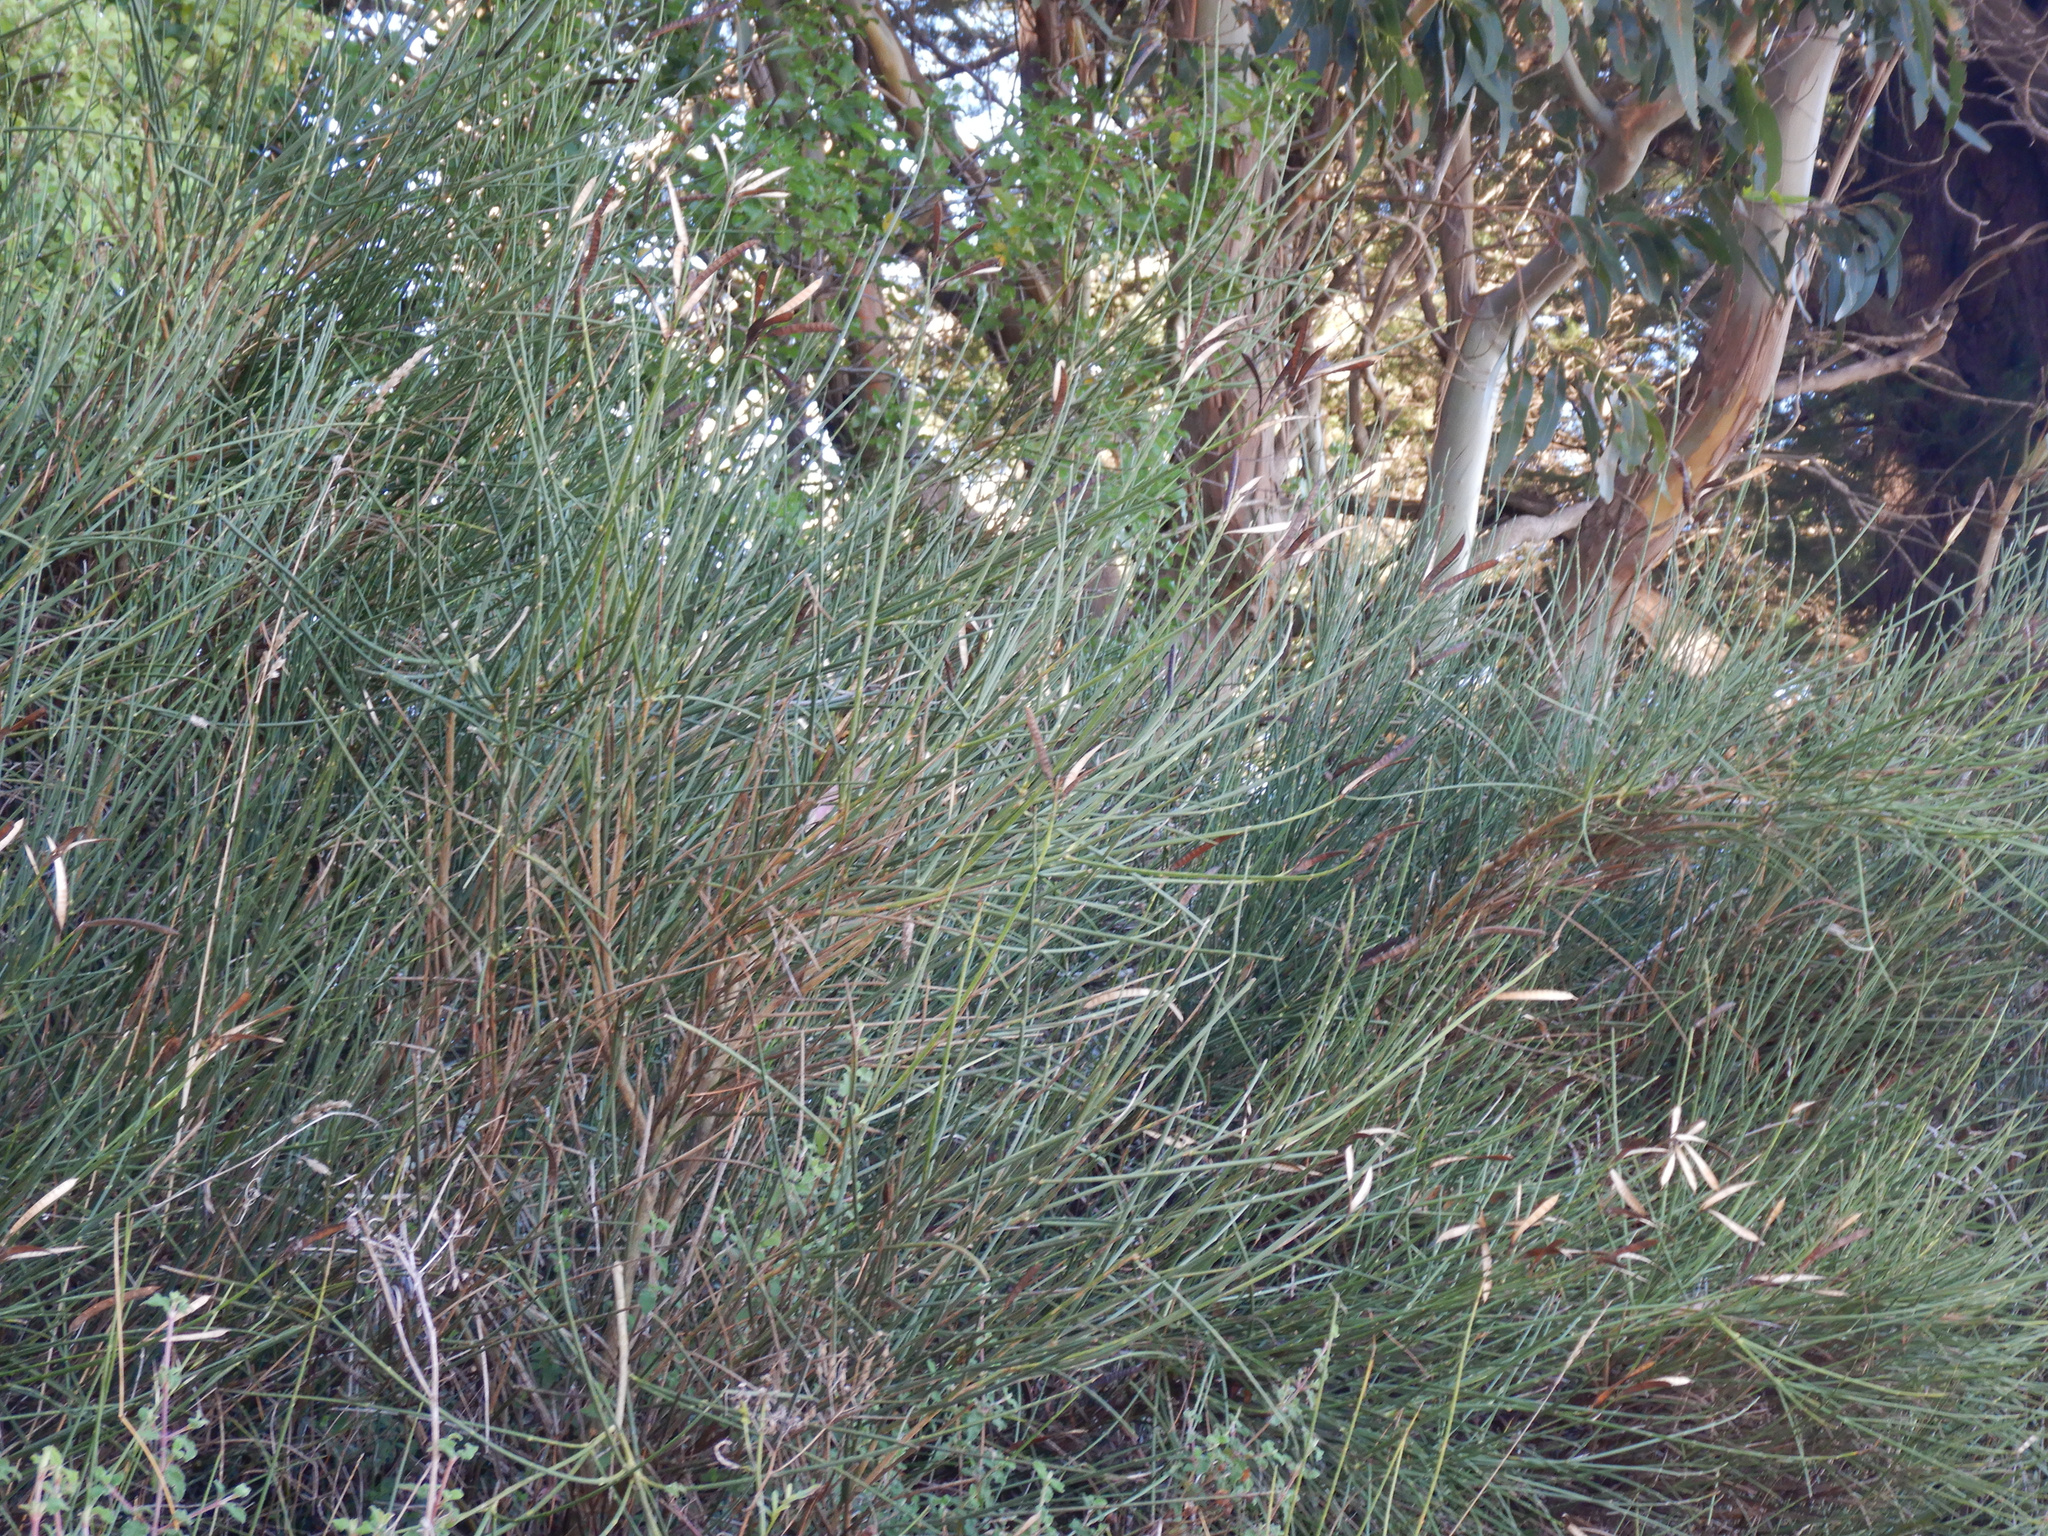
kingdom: Plantae
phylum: Tracheophyta
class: Magnoliopsida
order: Fabales
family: Fabaceae
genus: Spartium
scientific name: Spartium junceum
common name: Spanish broom
